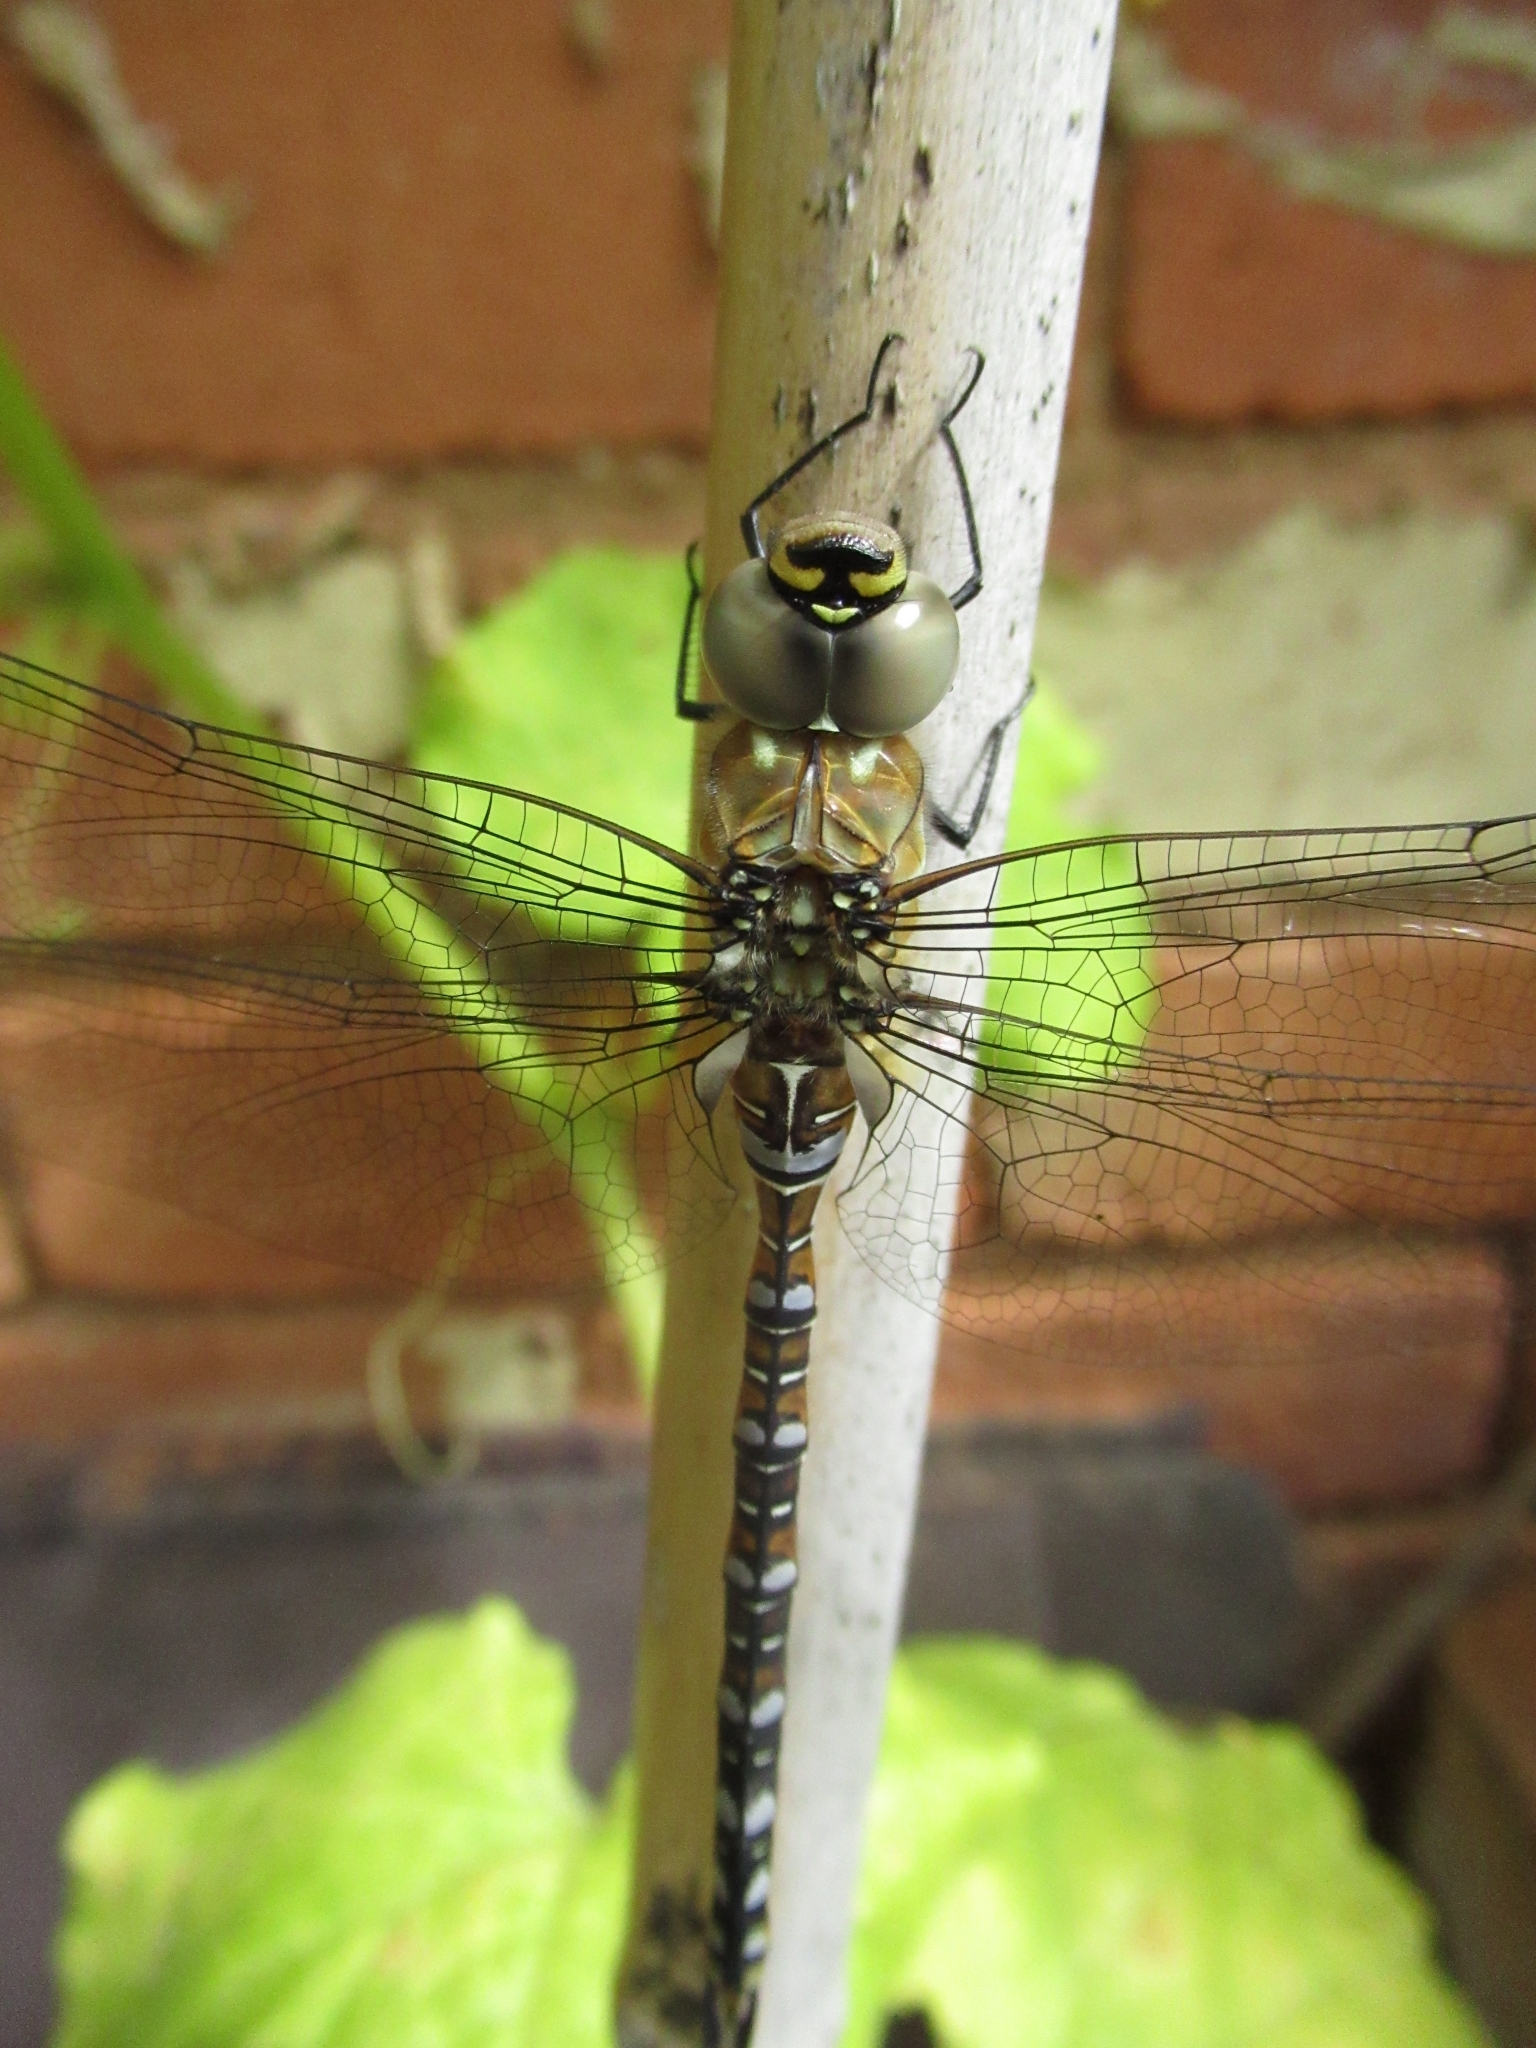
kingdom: Animalia
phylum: Arthropoda
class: Insecta
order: Odonata
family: Aeshnidae
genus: Aeshna
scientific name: Aeshna mixta
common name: Migrant hawker
